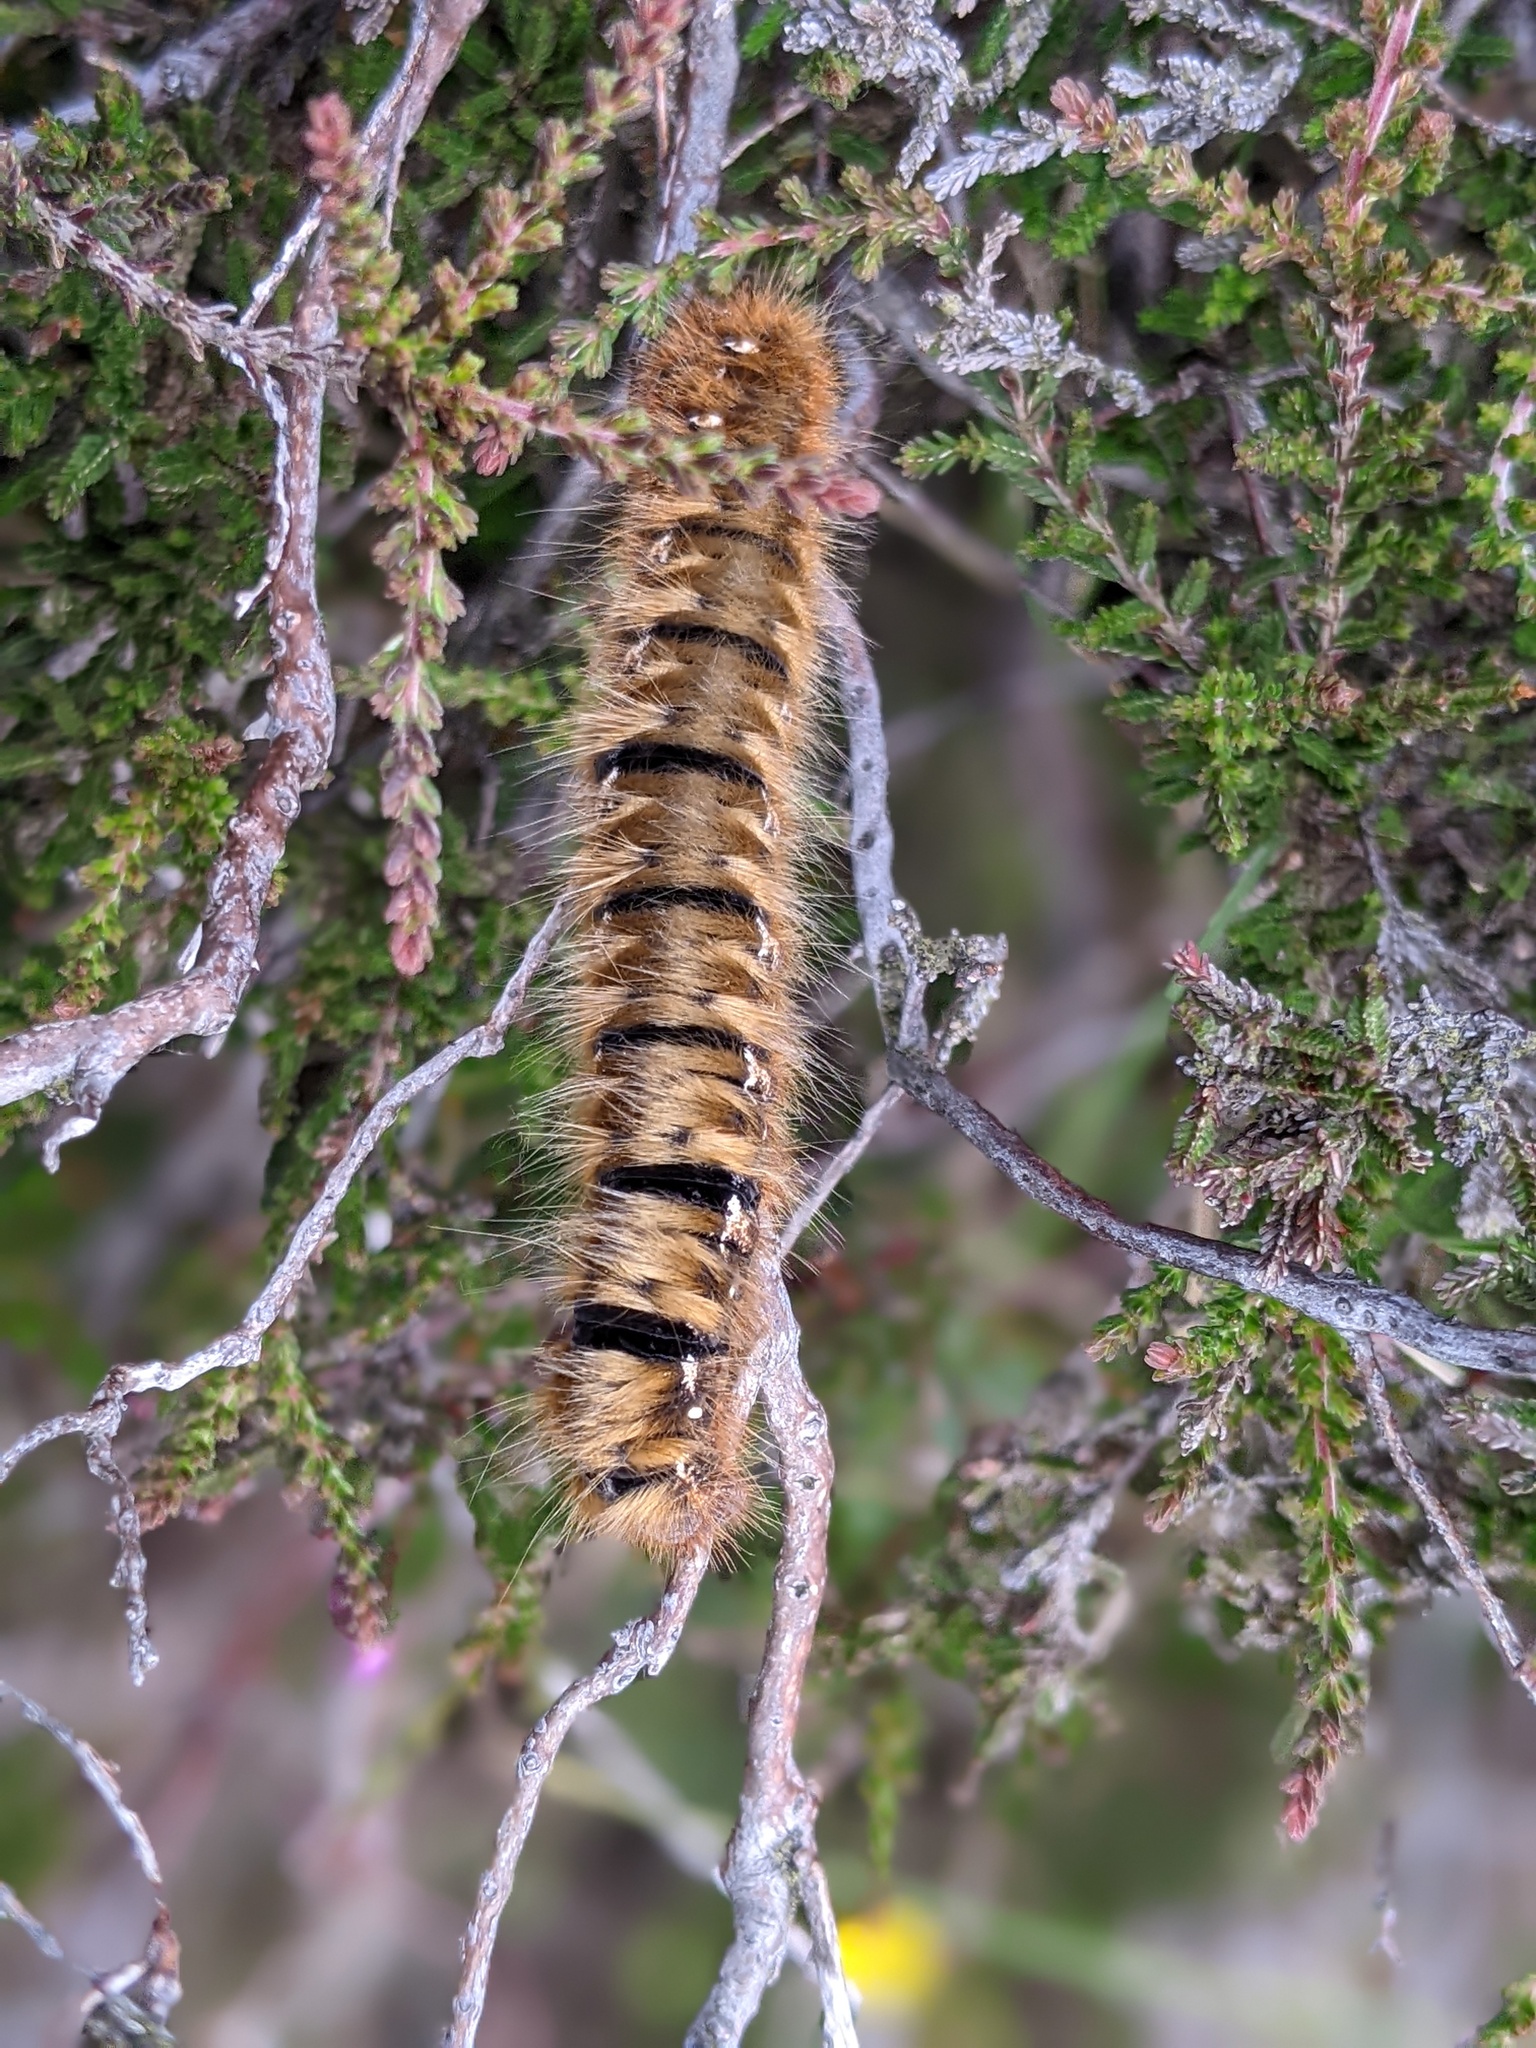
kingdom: Animalia
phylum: Arthropoda
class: Insecta
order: Lepidoptera
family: Lasiocampidae
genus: Lasiocampa
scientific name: Lasiocampa quercus
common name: Oak eggar
